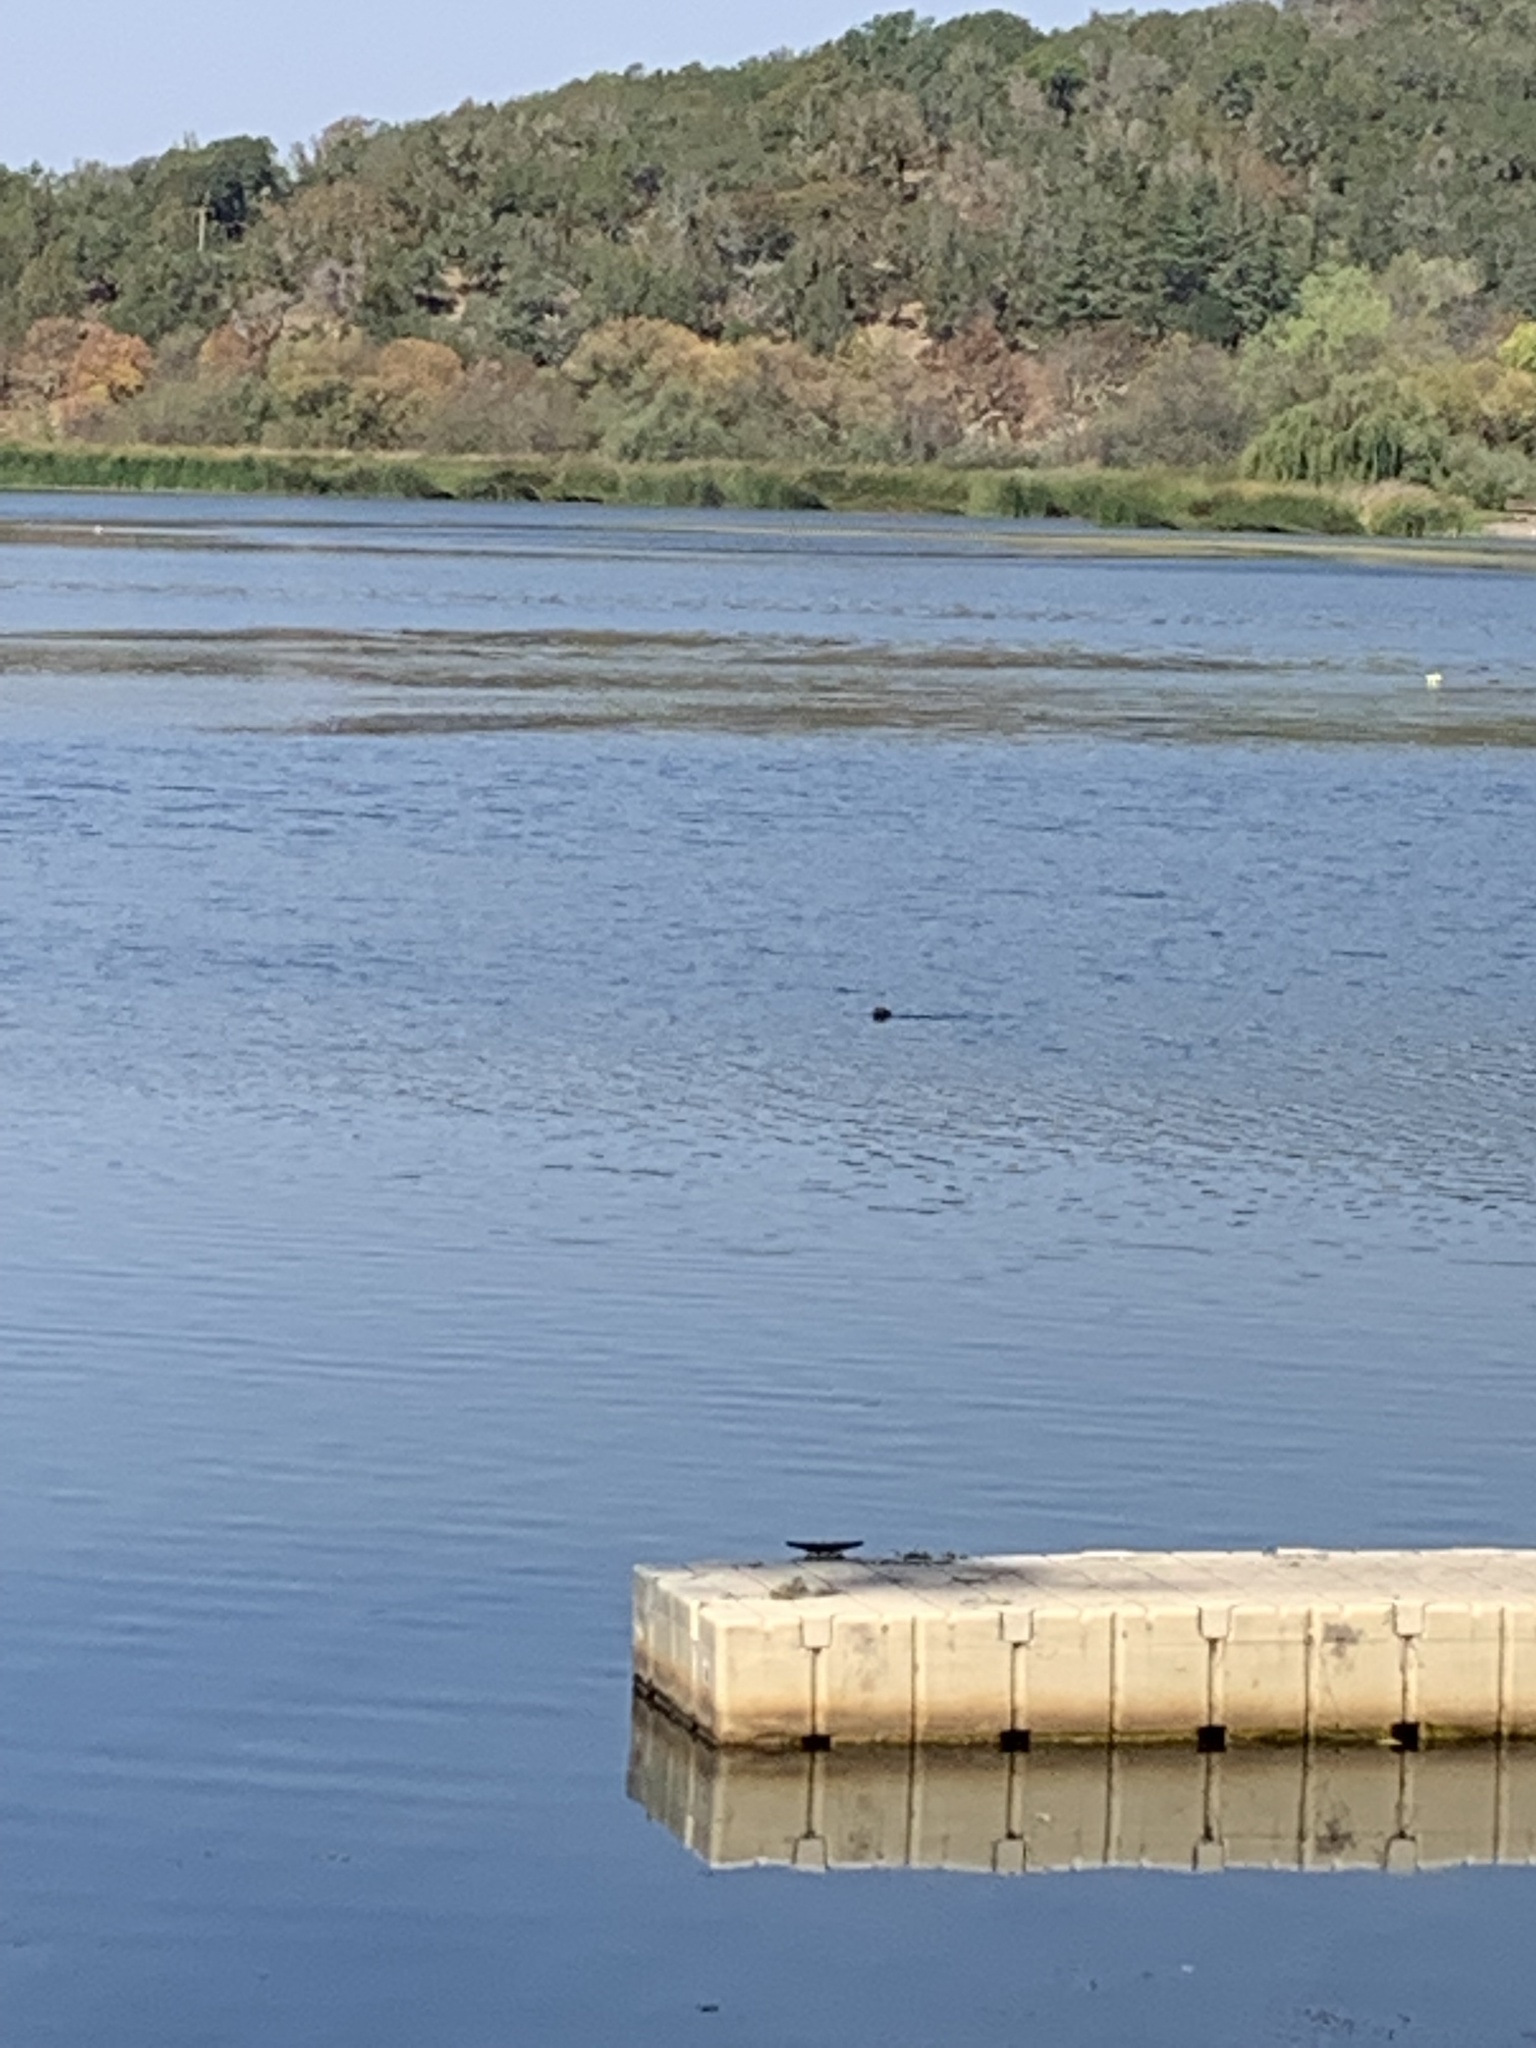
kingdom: Animalia
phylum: Chordata
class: Mammalia
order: Carnivora
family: Mustelidae
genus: Lontra
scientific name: Lontra canadensis
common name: North american river otter
